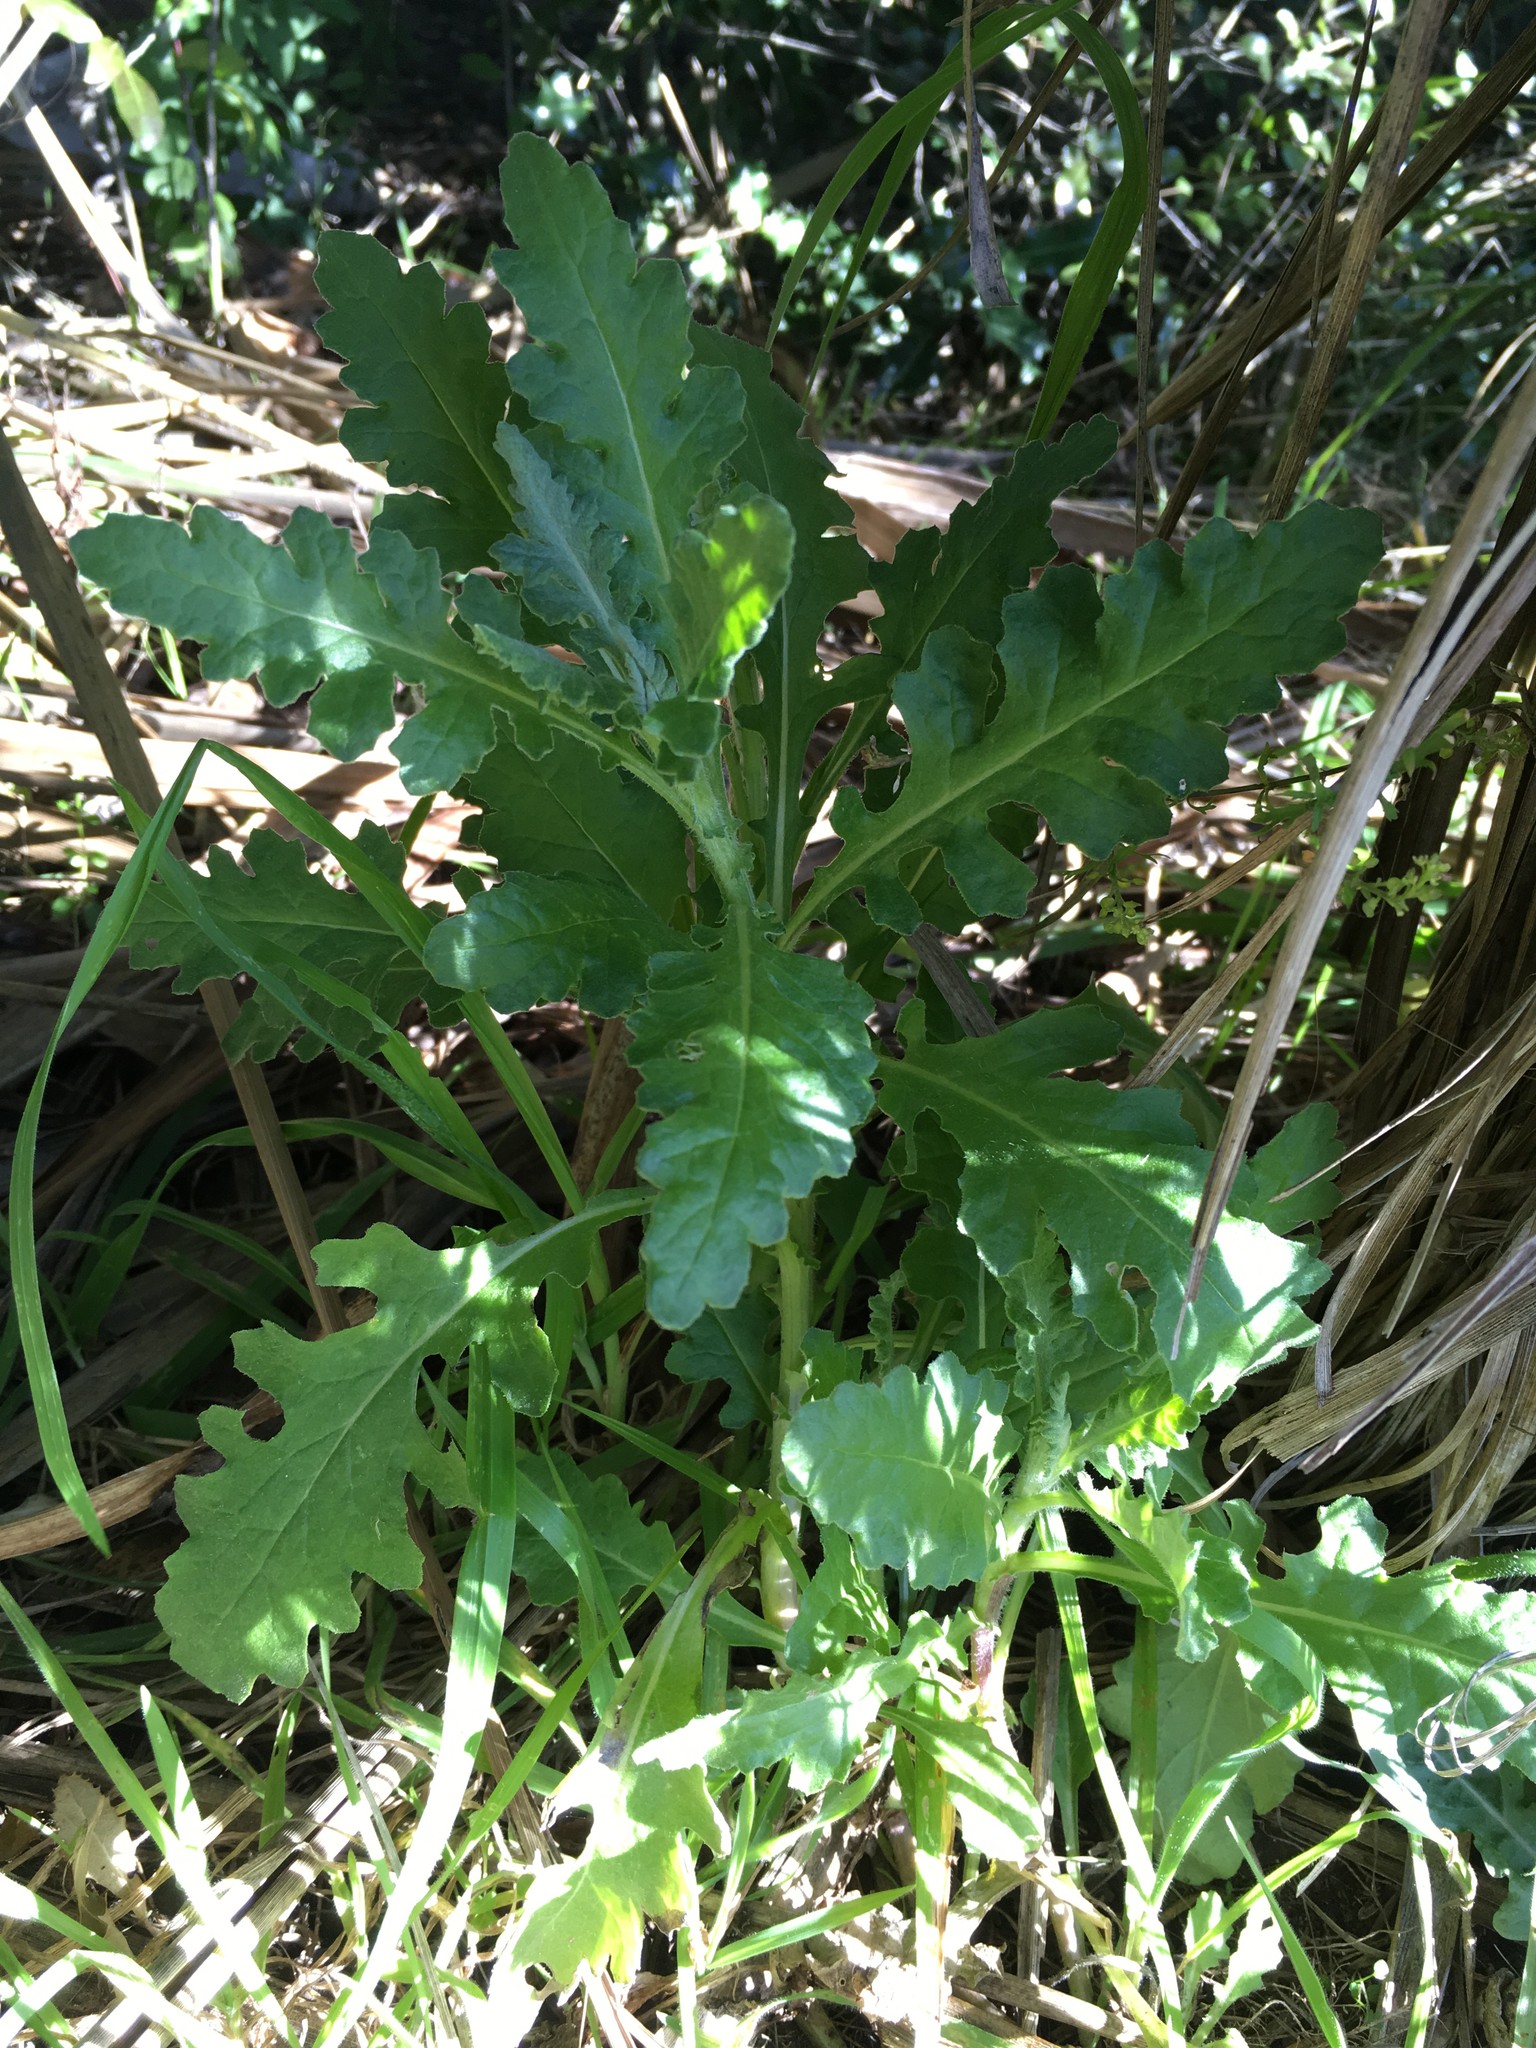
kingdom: Plantae
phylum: Tracheophyta
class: Magnoliopsida
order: Asterales
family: Asteraceae
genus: Senecio
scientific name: Senecio glomeratus
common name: Cutleaf burnweed
